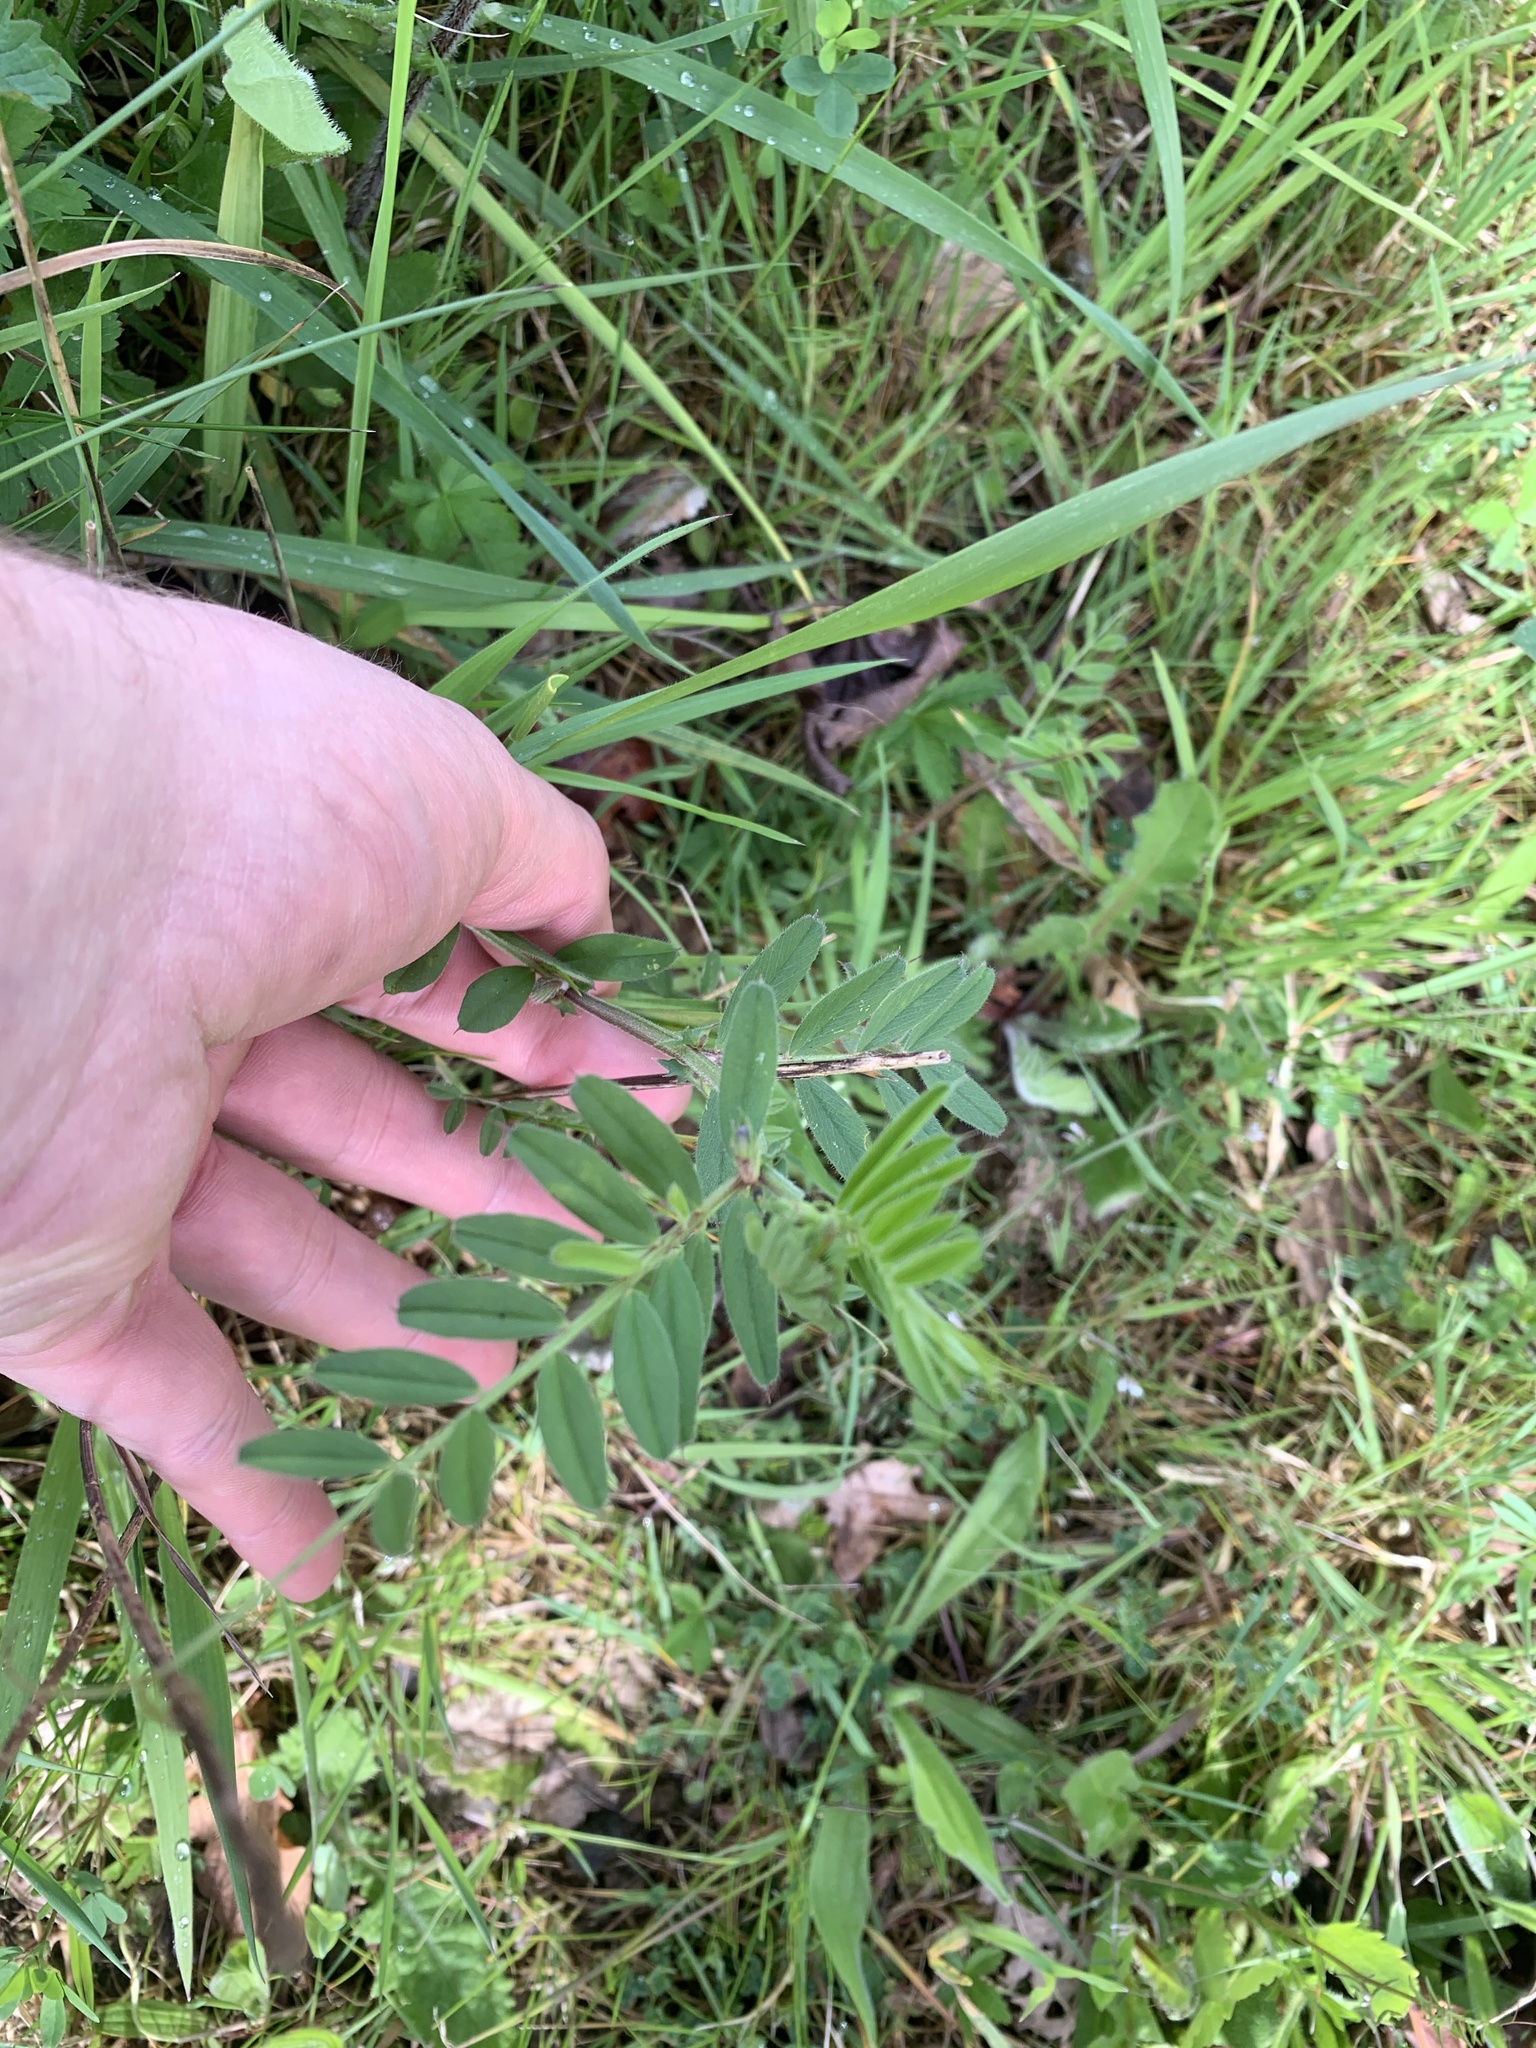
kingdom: Plantae
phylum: Tracheophyta
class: Magnoliopsida
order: Fabales
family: Fabaceae
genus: Vicia
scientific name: Vicia sativa
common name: Garden vetch
